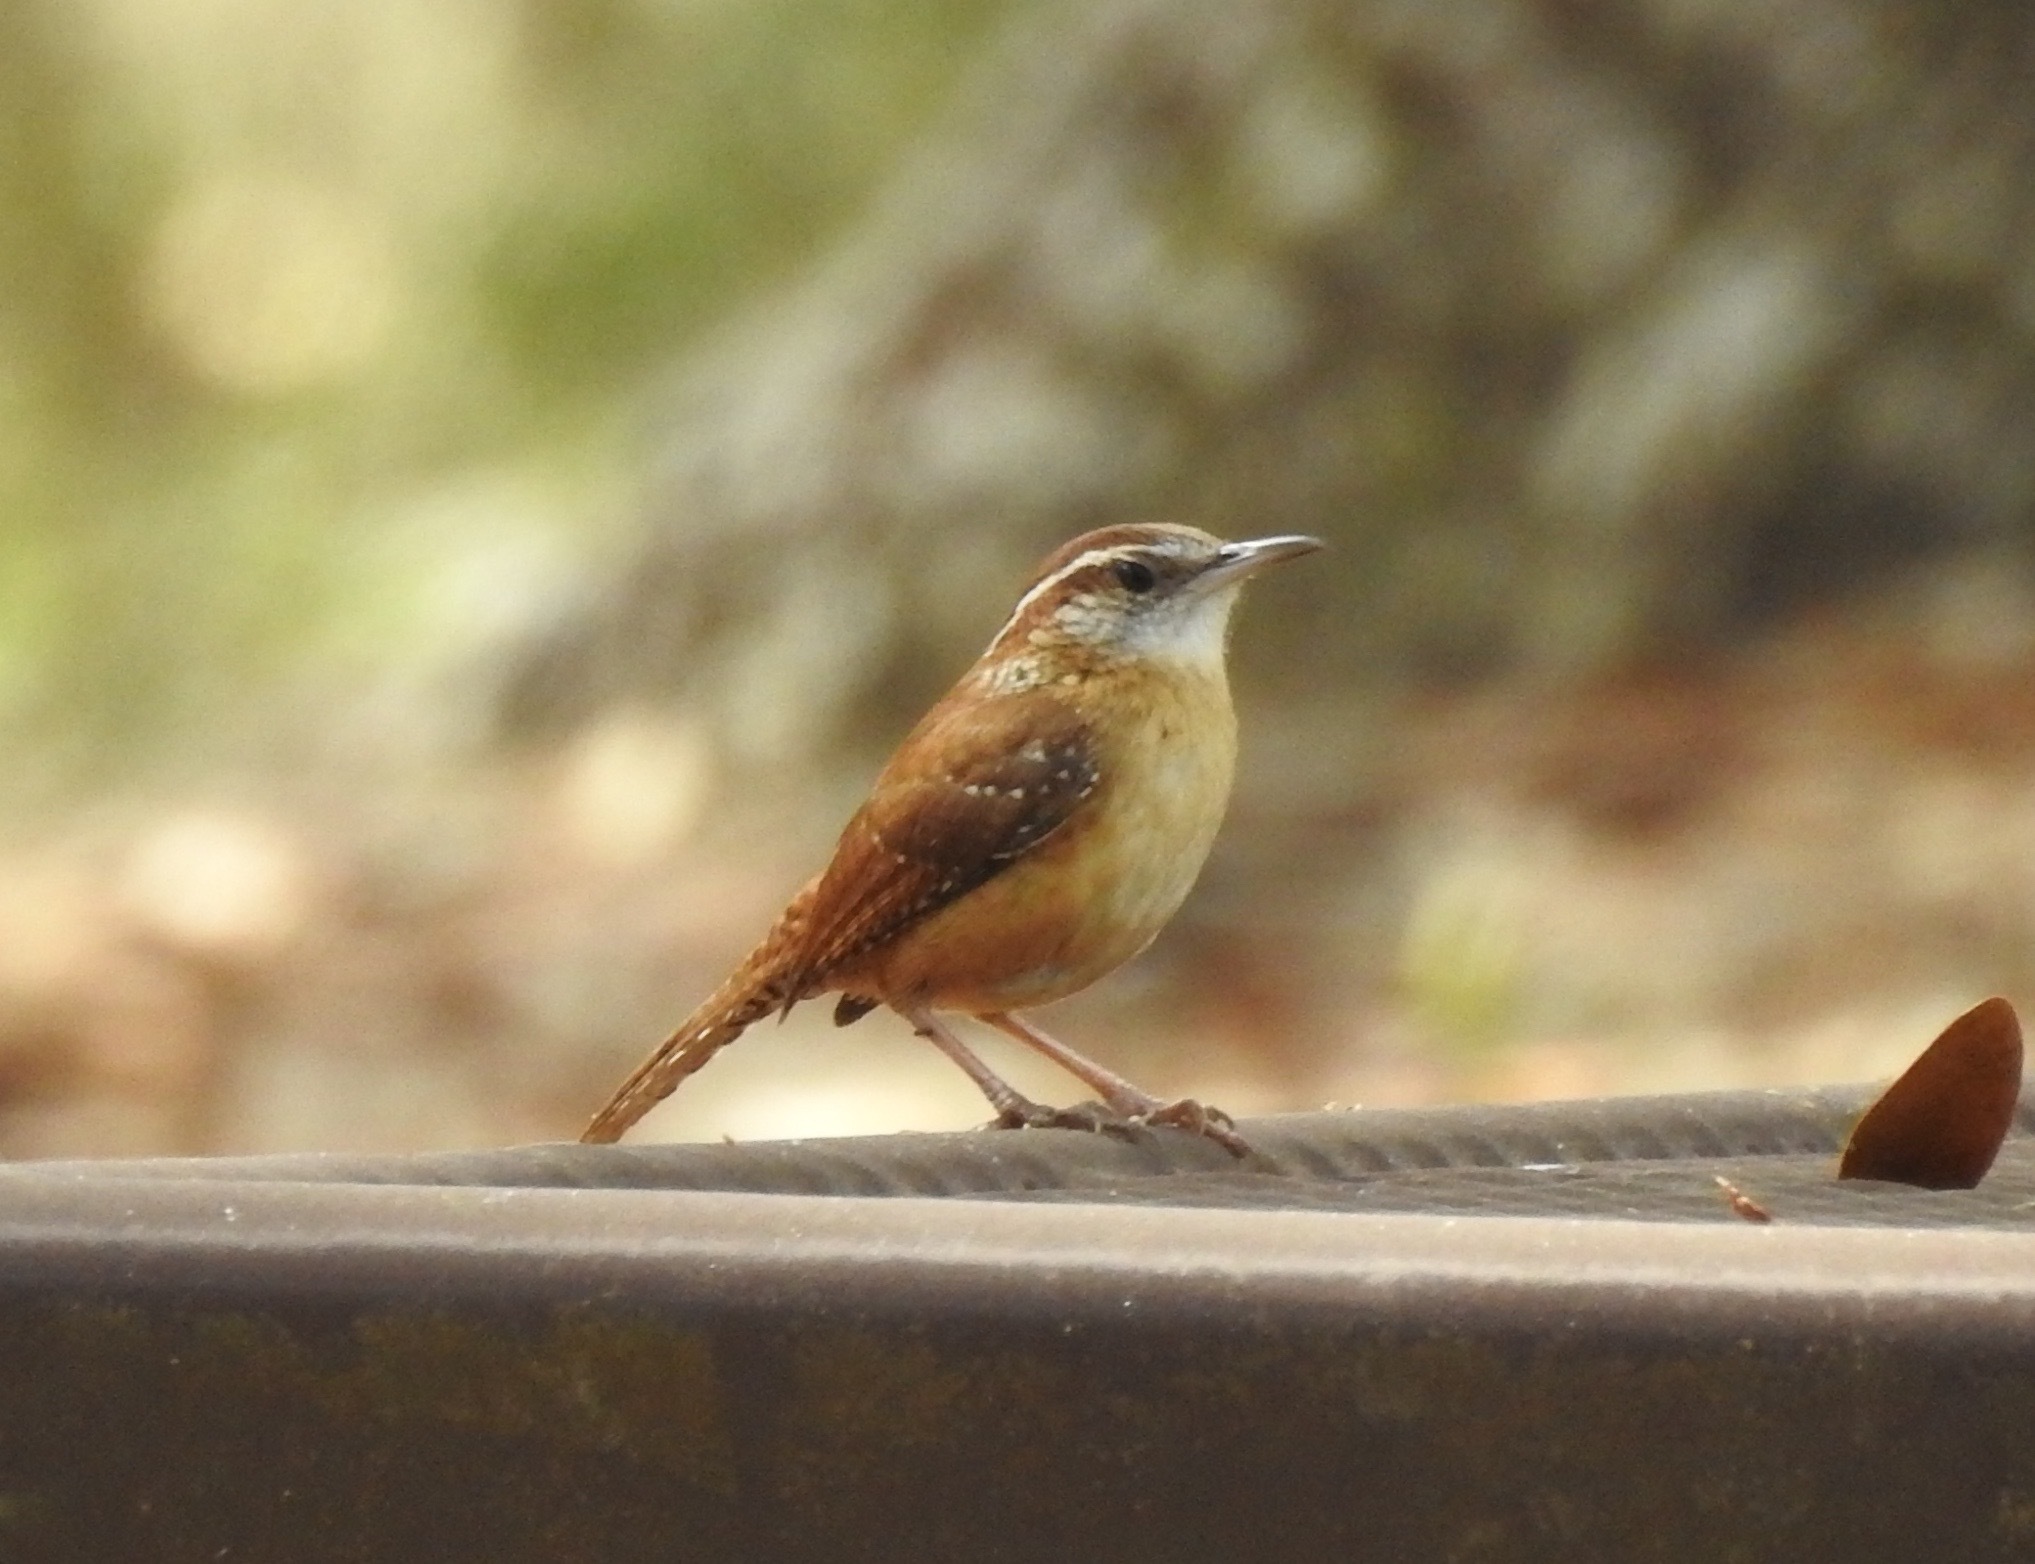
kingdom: Animalia
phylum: Chordata
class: Aves
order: Passeriformes
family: Troglodytidae
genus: Thryothorus
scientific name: Thryothorus ludovicianus
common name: Carolina wren
